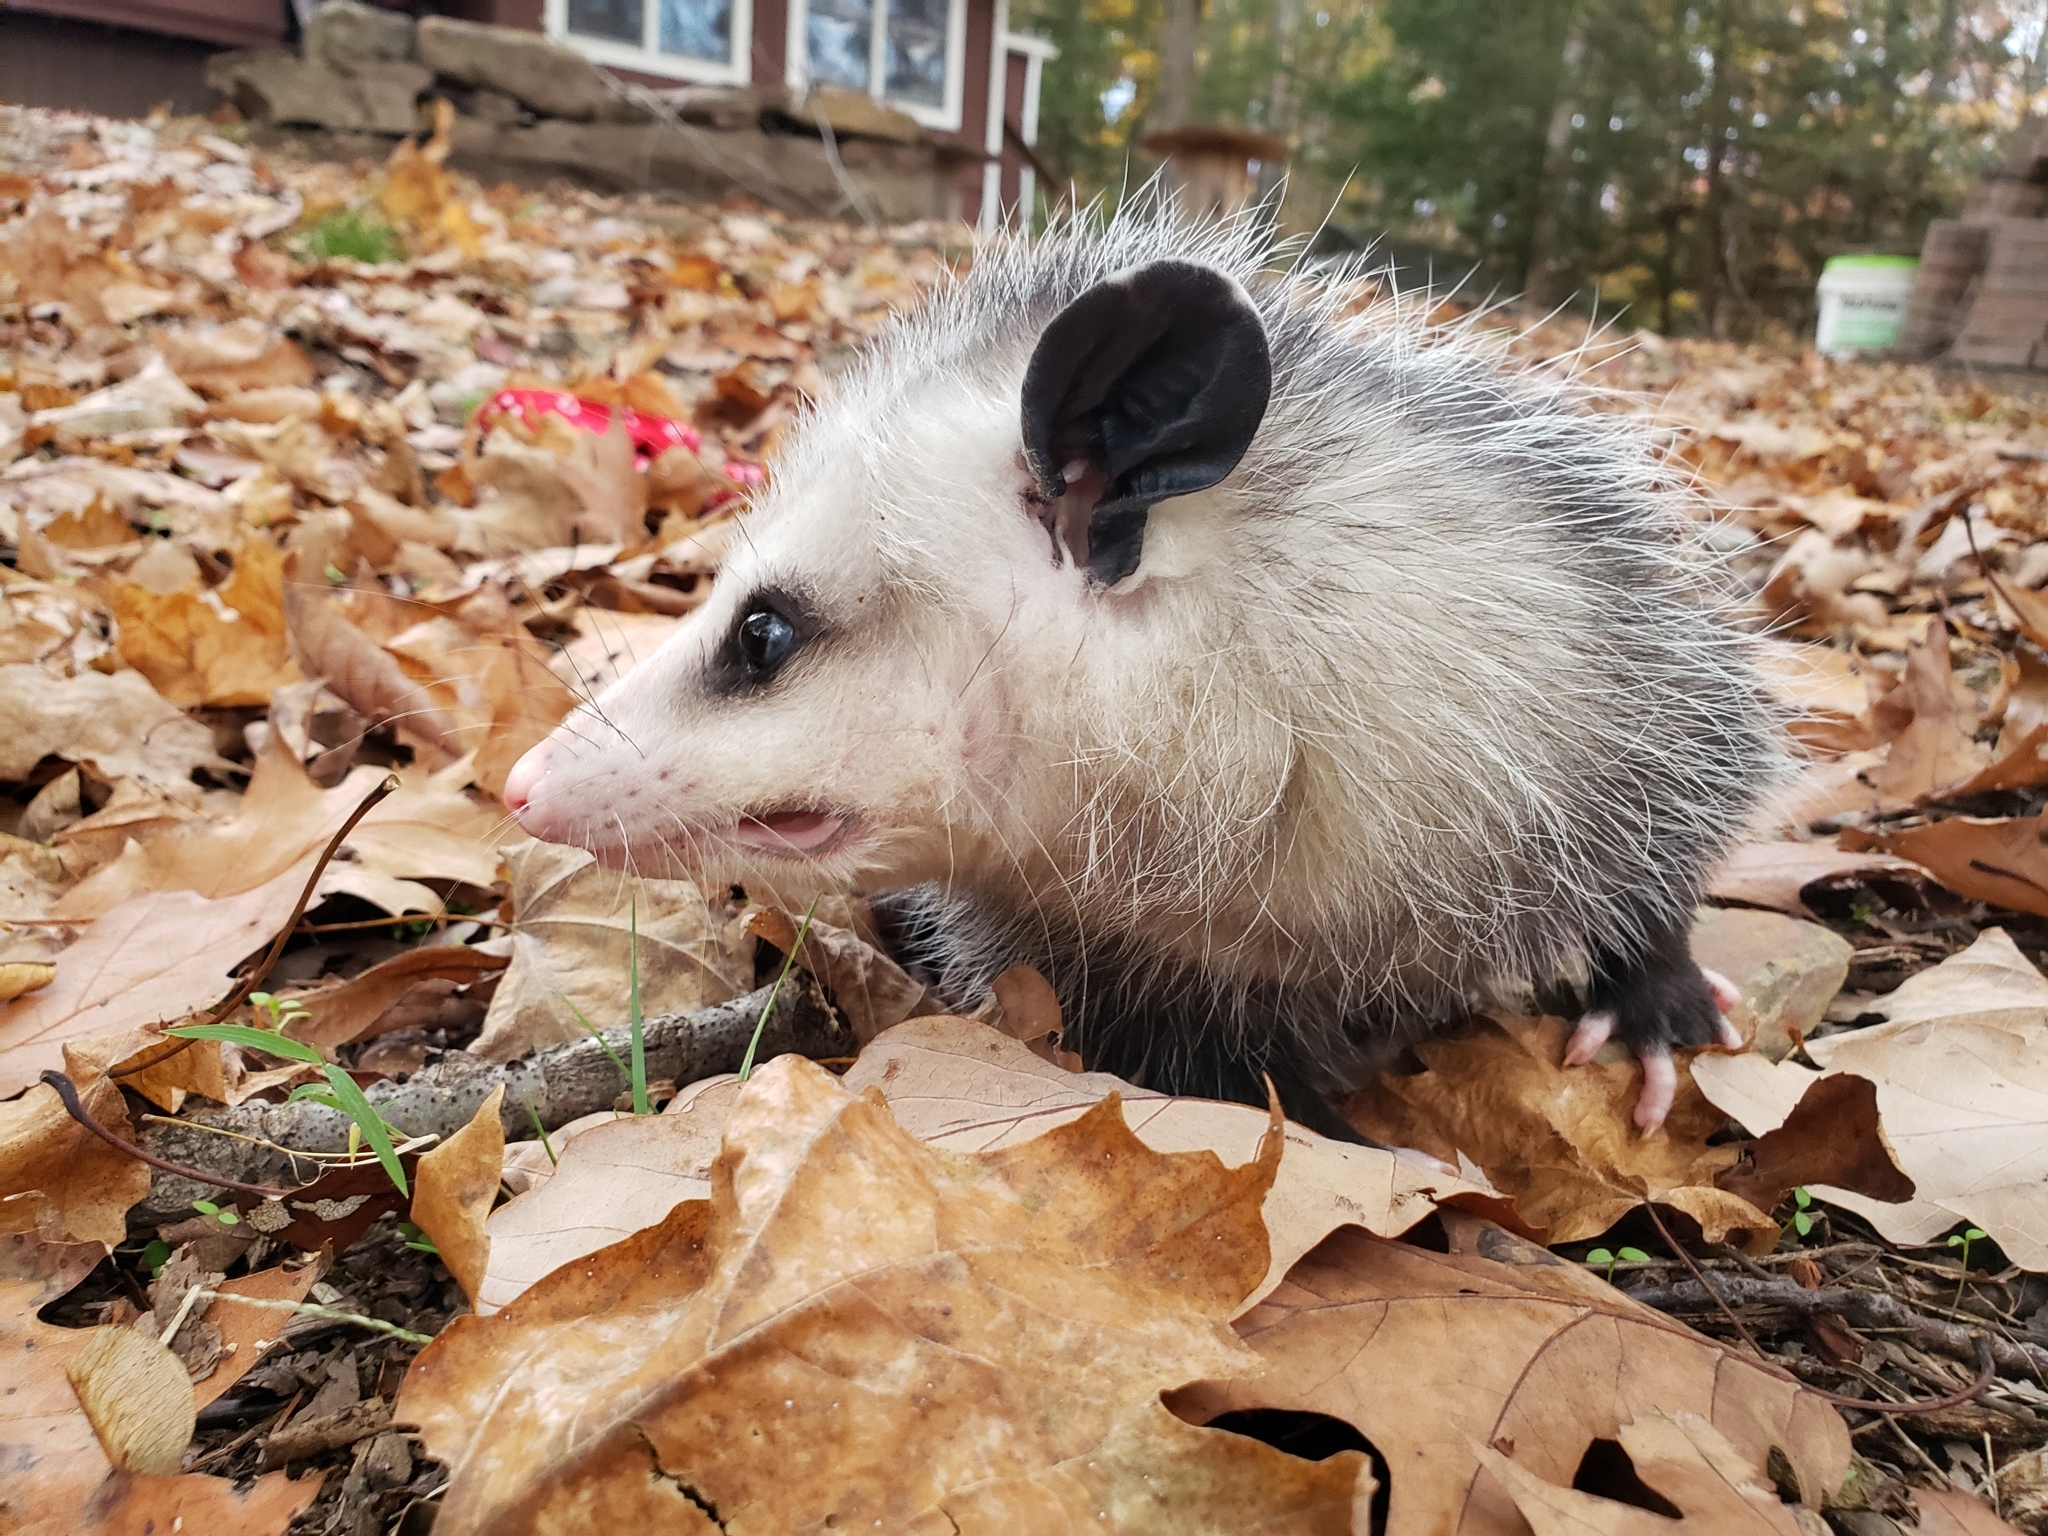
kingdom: Animalia
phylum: Chordata
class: Mammalia
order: Didelphimorphia
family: Didelphidae
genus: Didelphis
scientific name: Didelphis virginiana
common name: Virginia opossum
